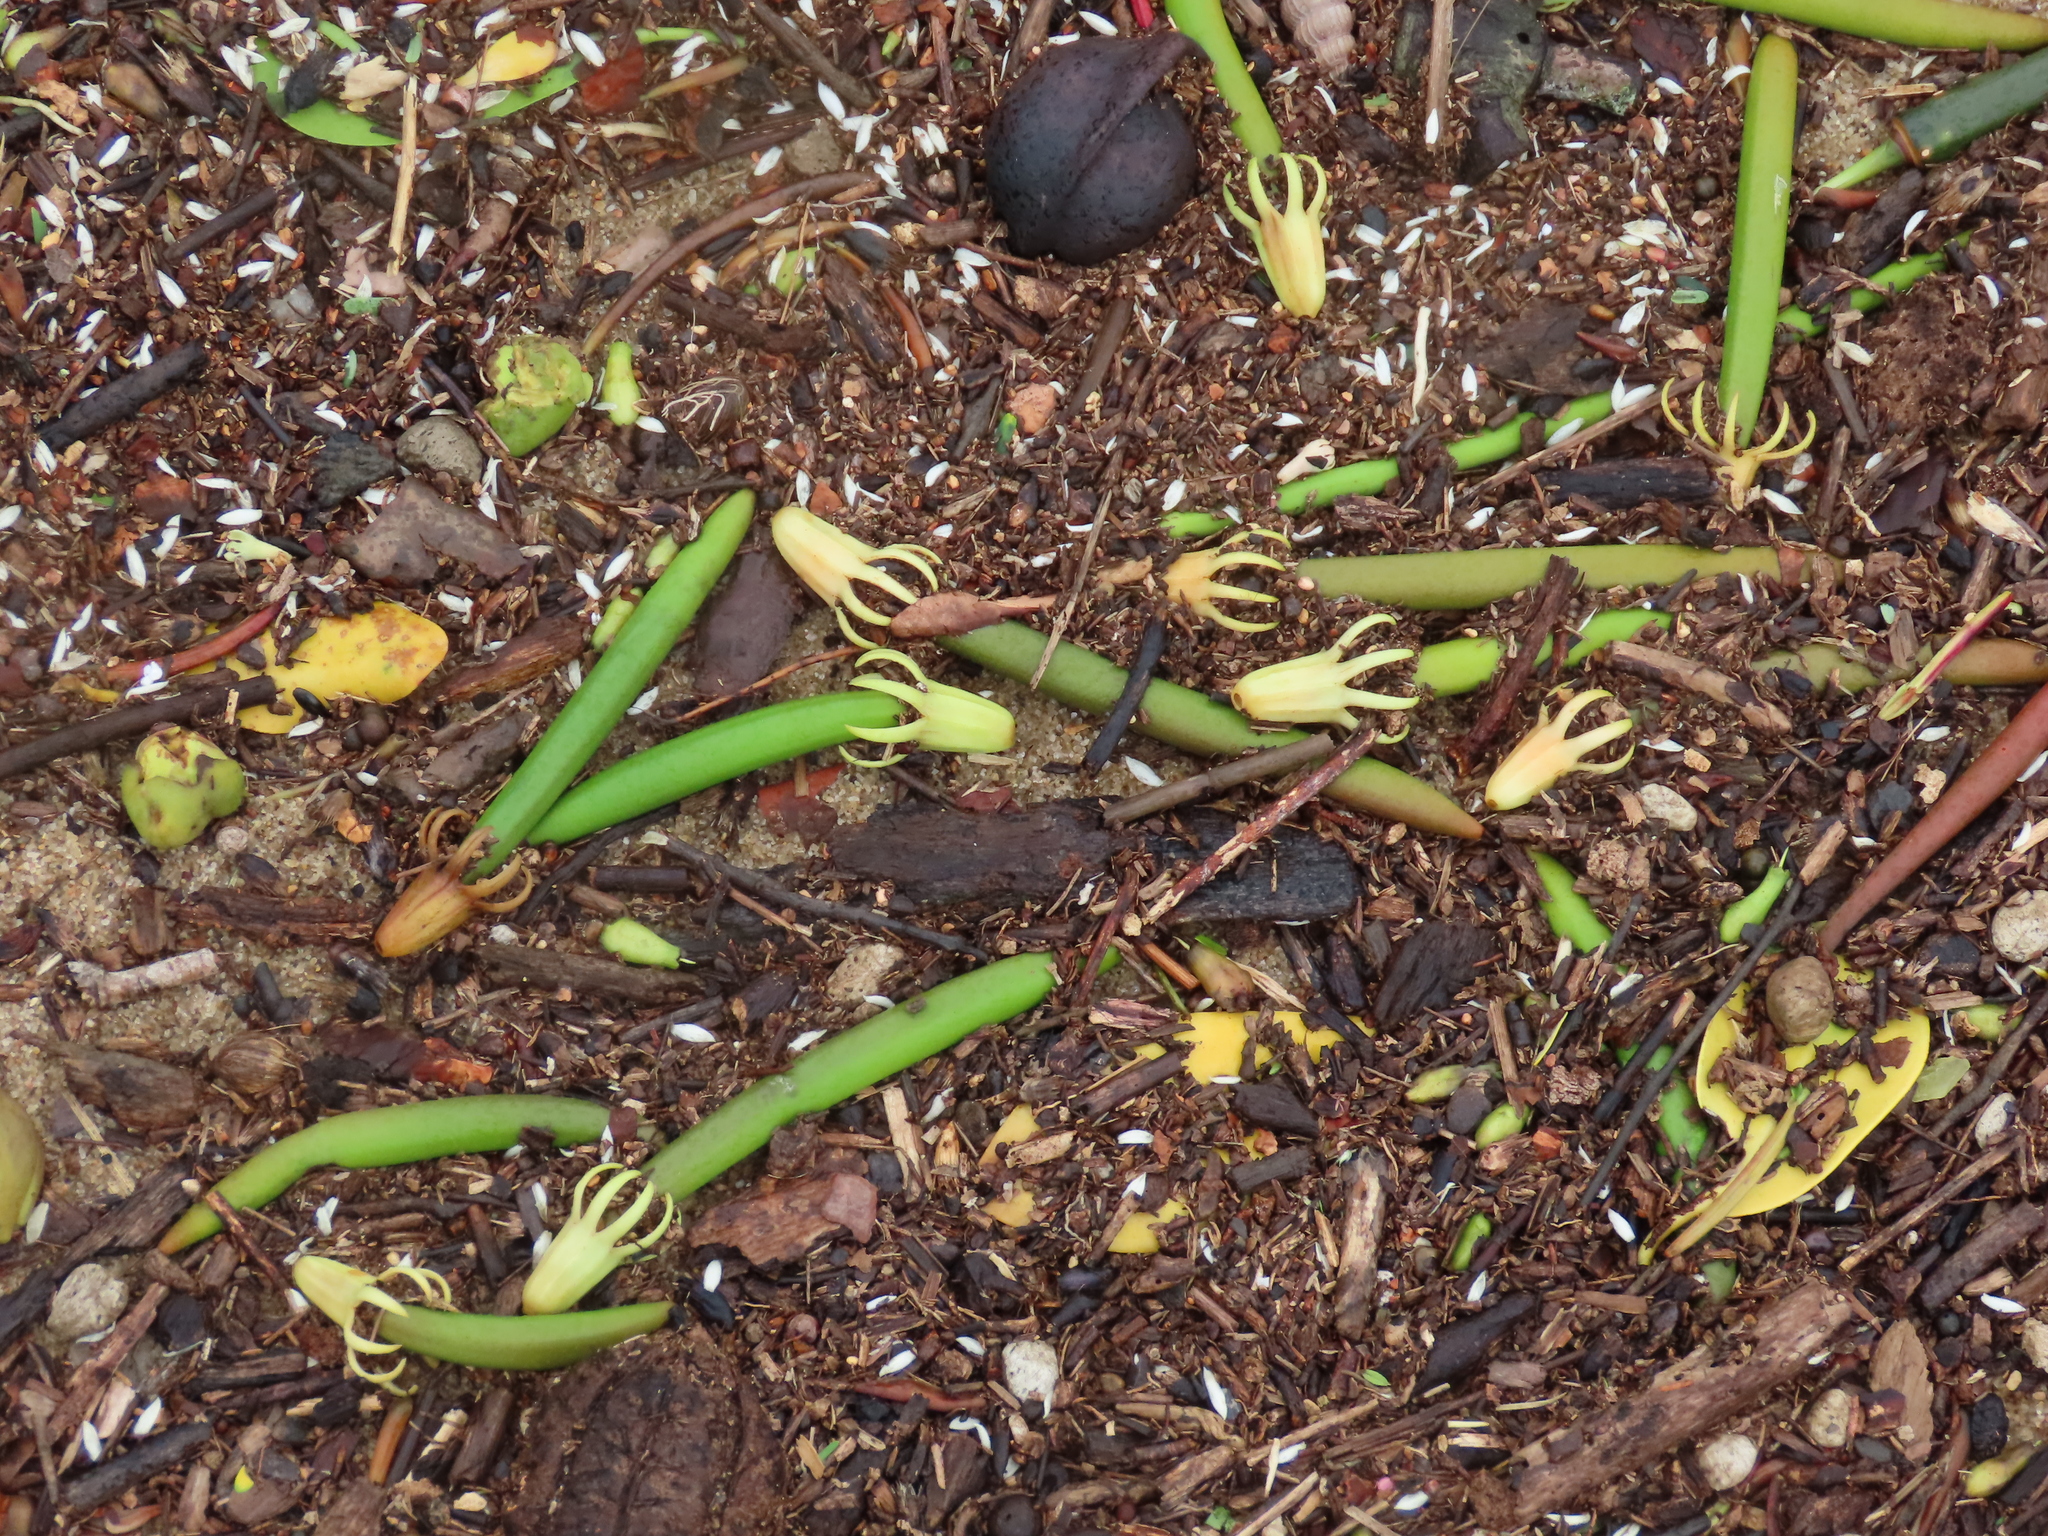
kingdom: Plantae
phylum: Tracheophyta
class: Magnoliopsida
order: Malpighiales
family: Rhizophoraceae
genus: Bruguiera
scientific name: Bruguiera exaristata
